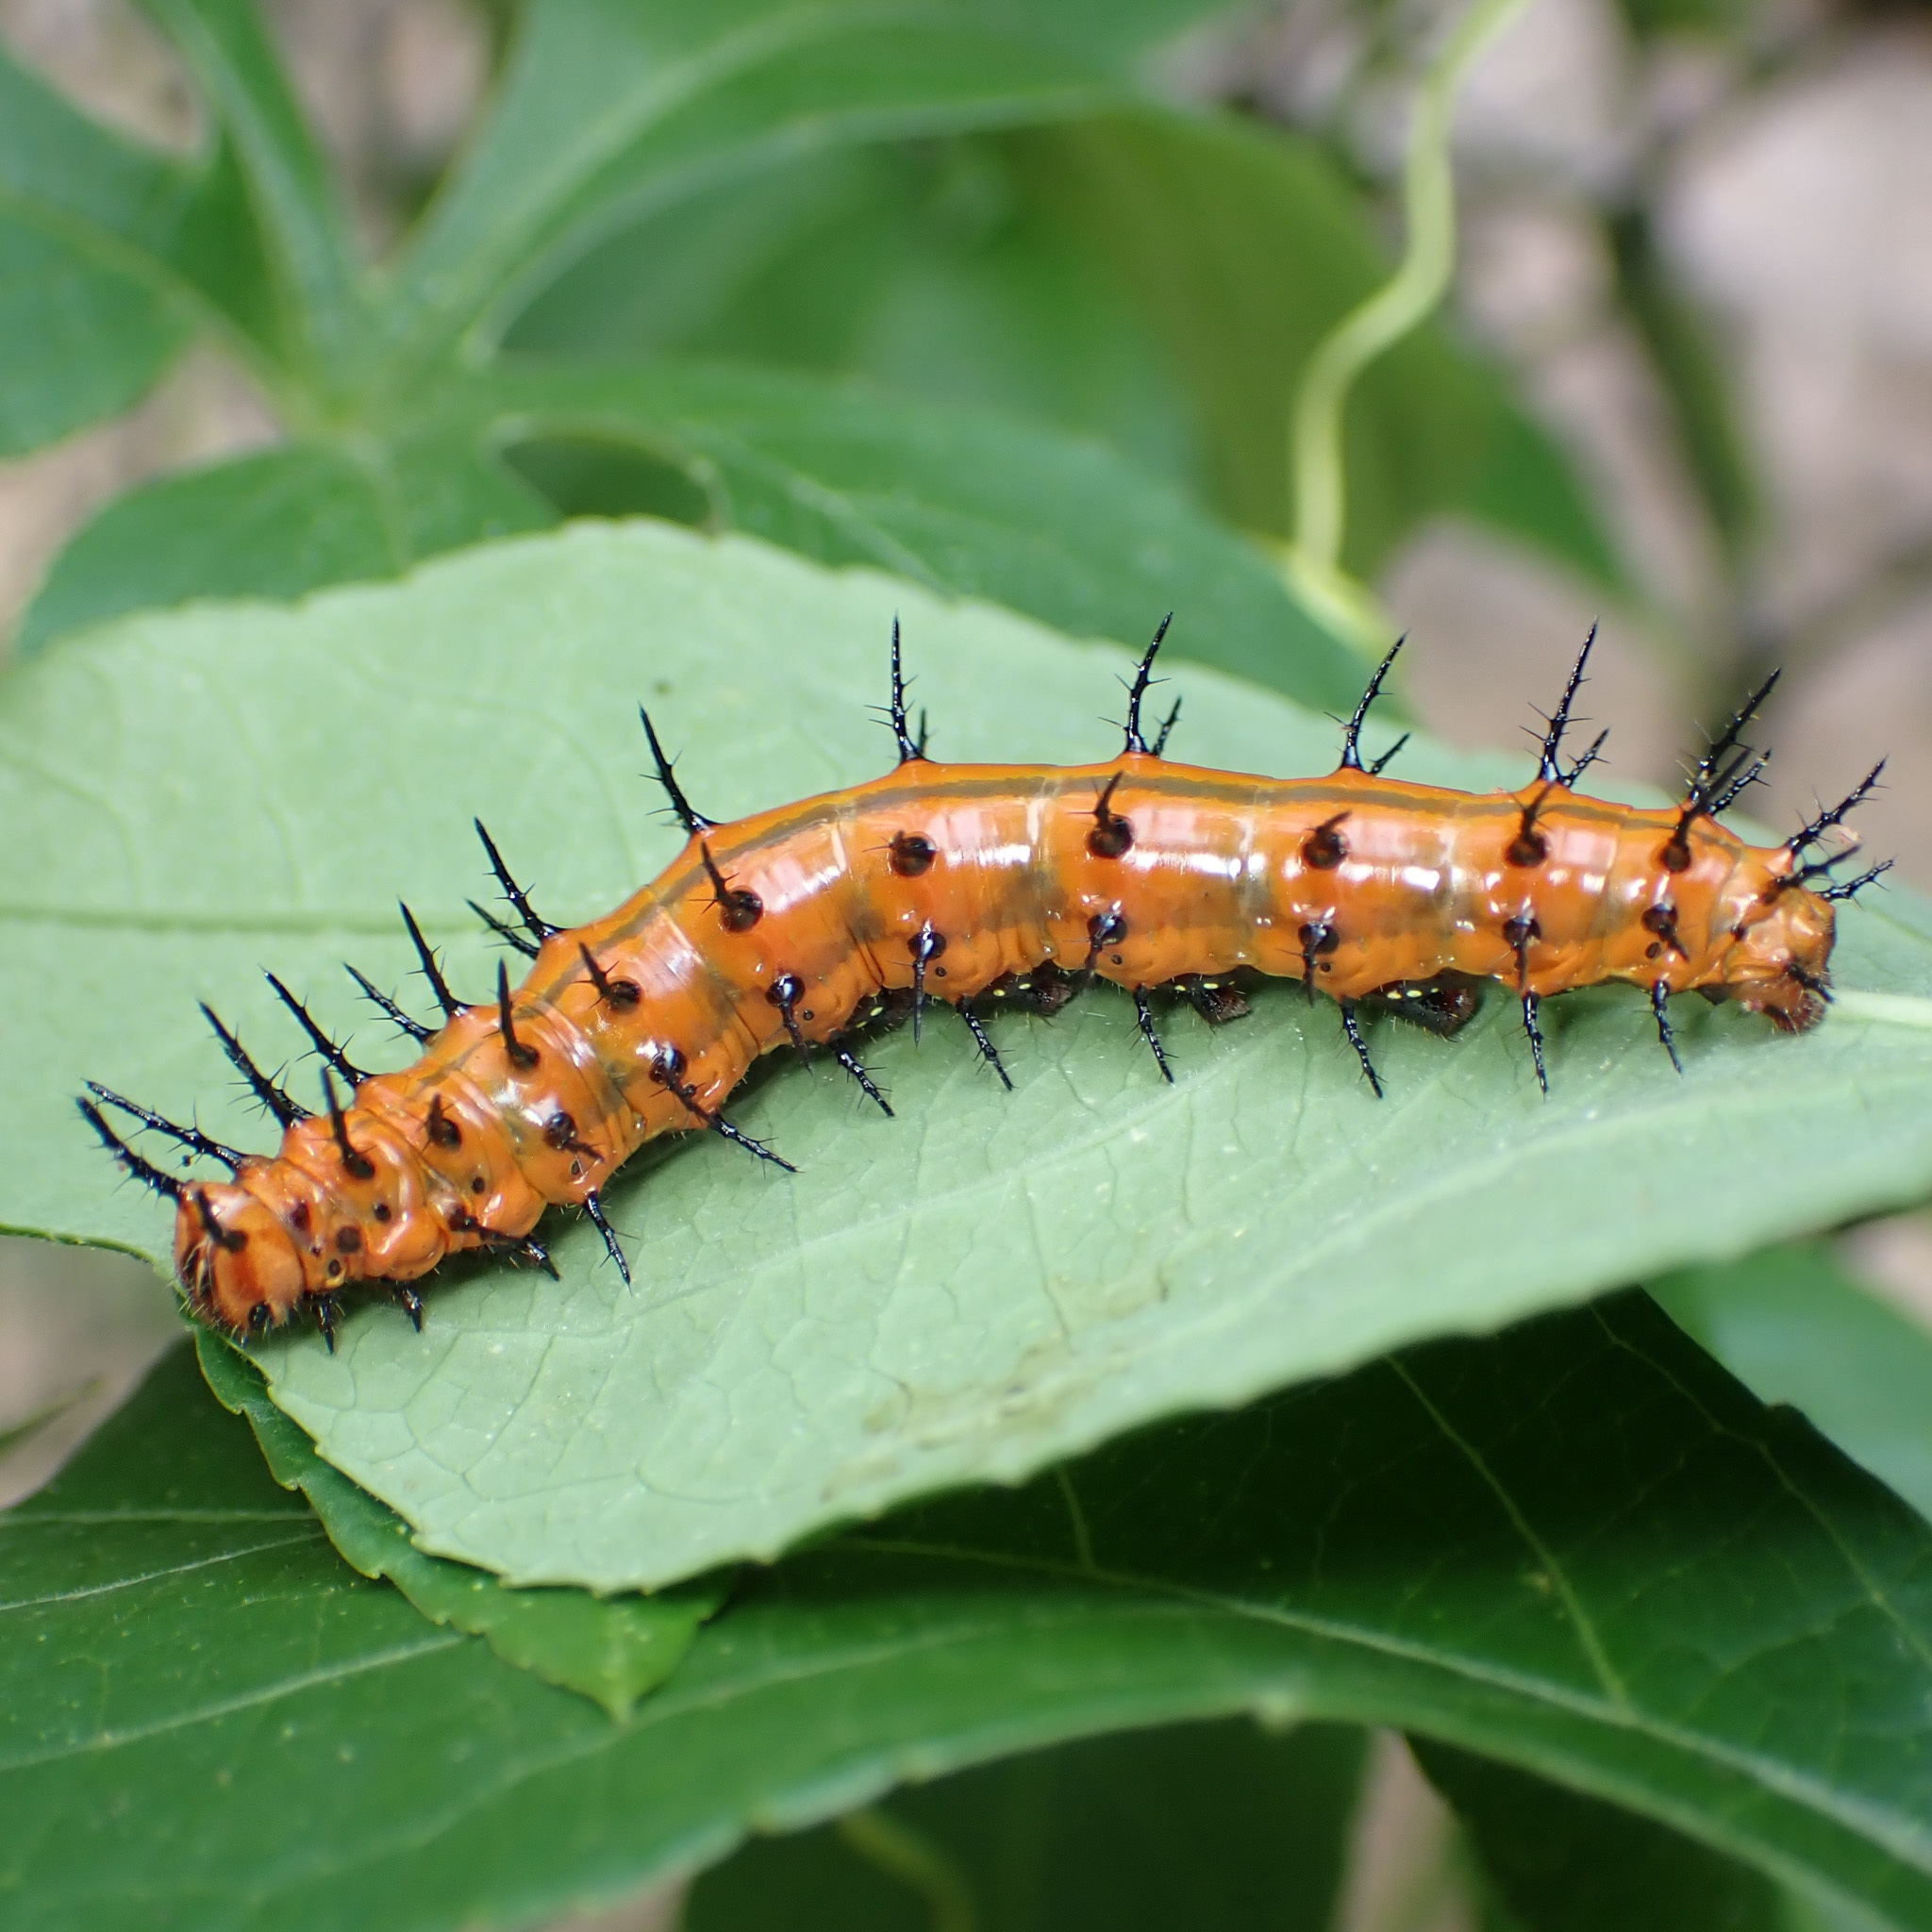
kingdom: Animalia
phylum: Arthropoda
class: Insecta
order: Lepidoptera
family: Nymphalidae
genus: Dione
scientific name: Dione vanillae
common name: Gulf fritillary
